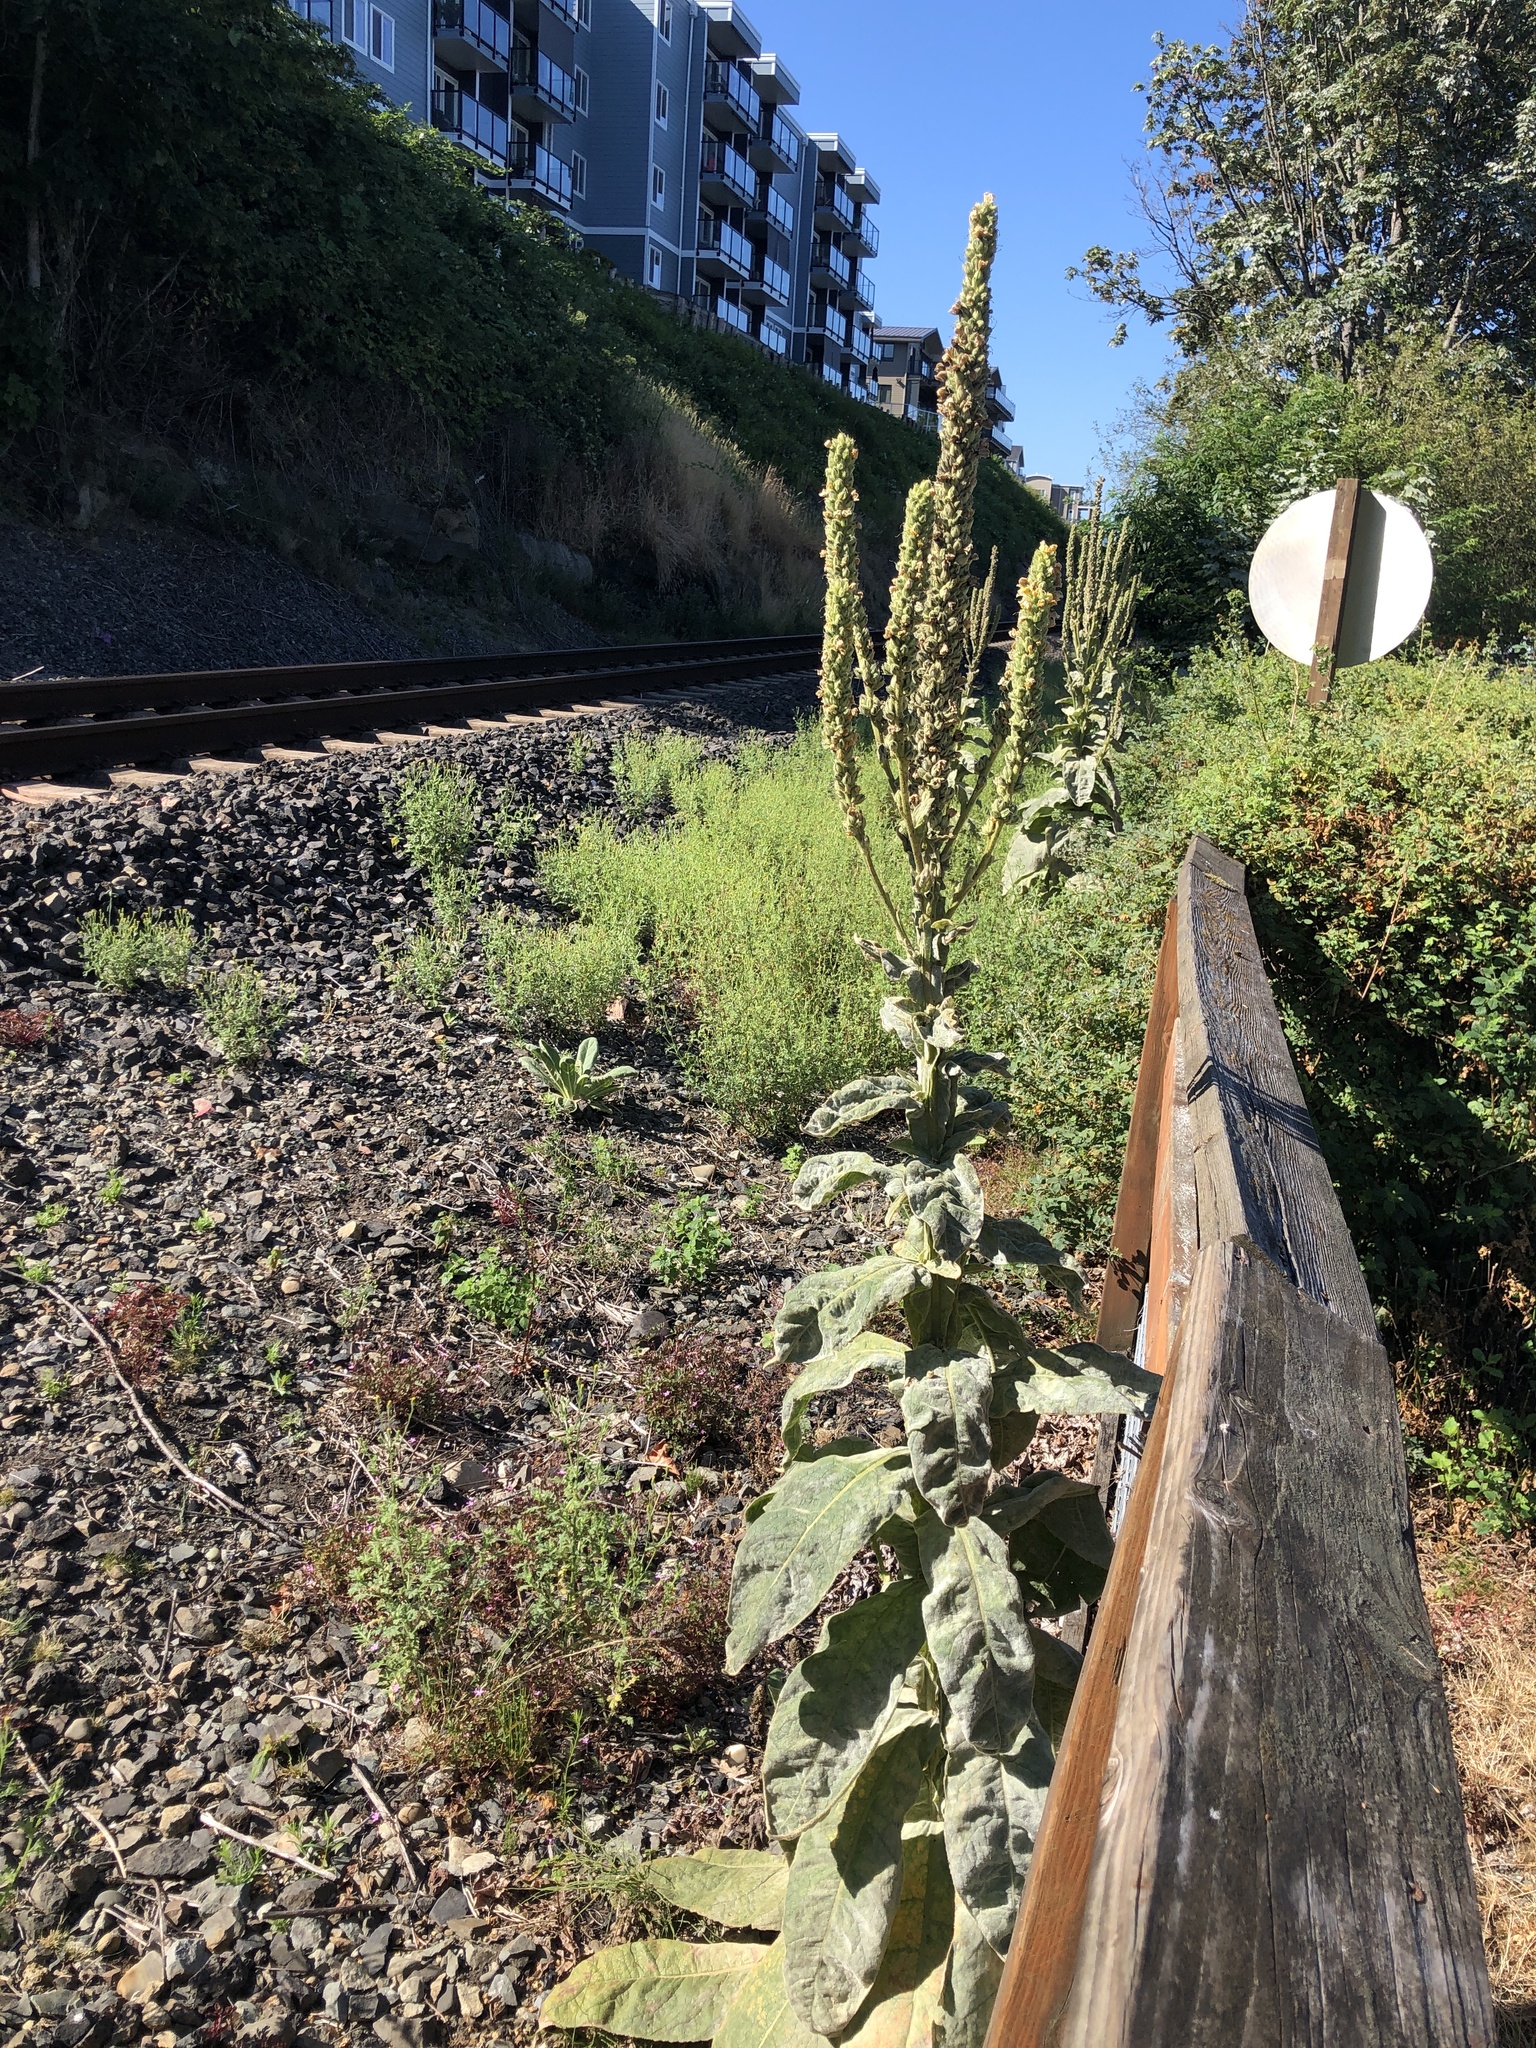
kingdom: Plantae
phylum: Tracheophyta
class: Magnoliopsida
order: Lamiales
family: Scrophulariaceae
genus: Verbascum
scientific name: Verbascum thapsus
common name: Common mullein
